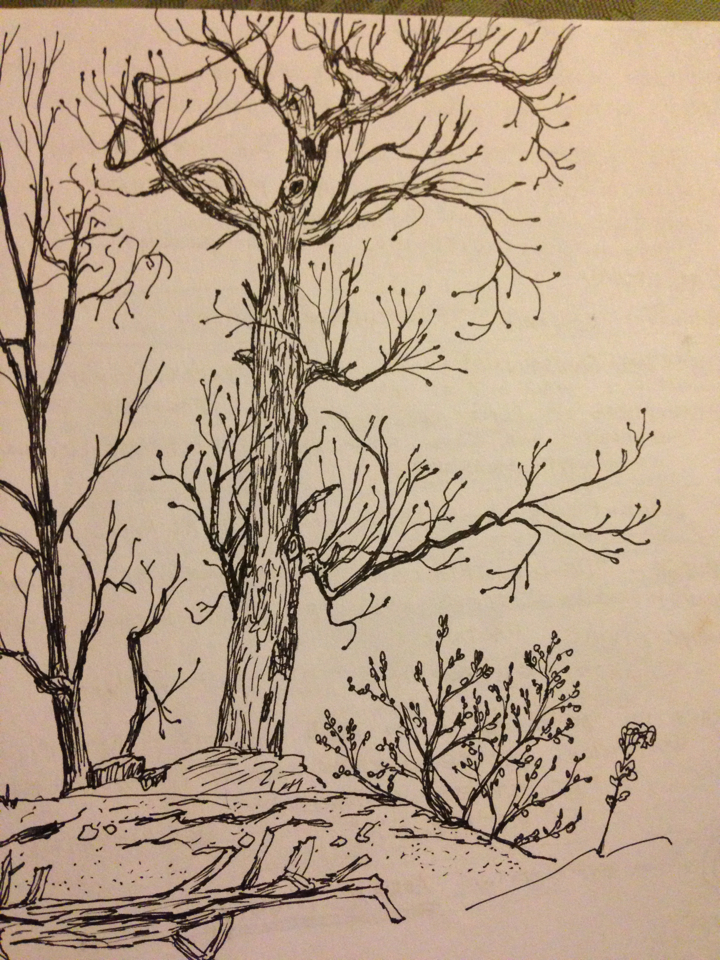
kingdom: Plantae
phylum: Tracheophyta
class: Magnoliopsida
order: Malvales
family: Malvaceae
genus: Tilia
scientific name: Tilia americana
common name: Basswood
